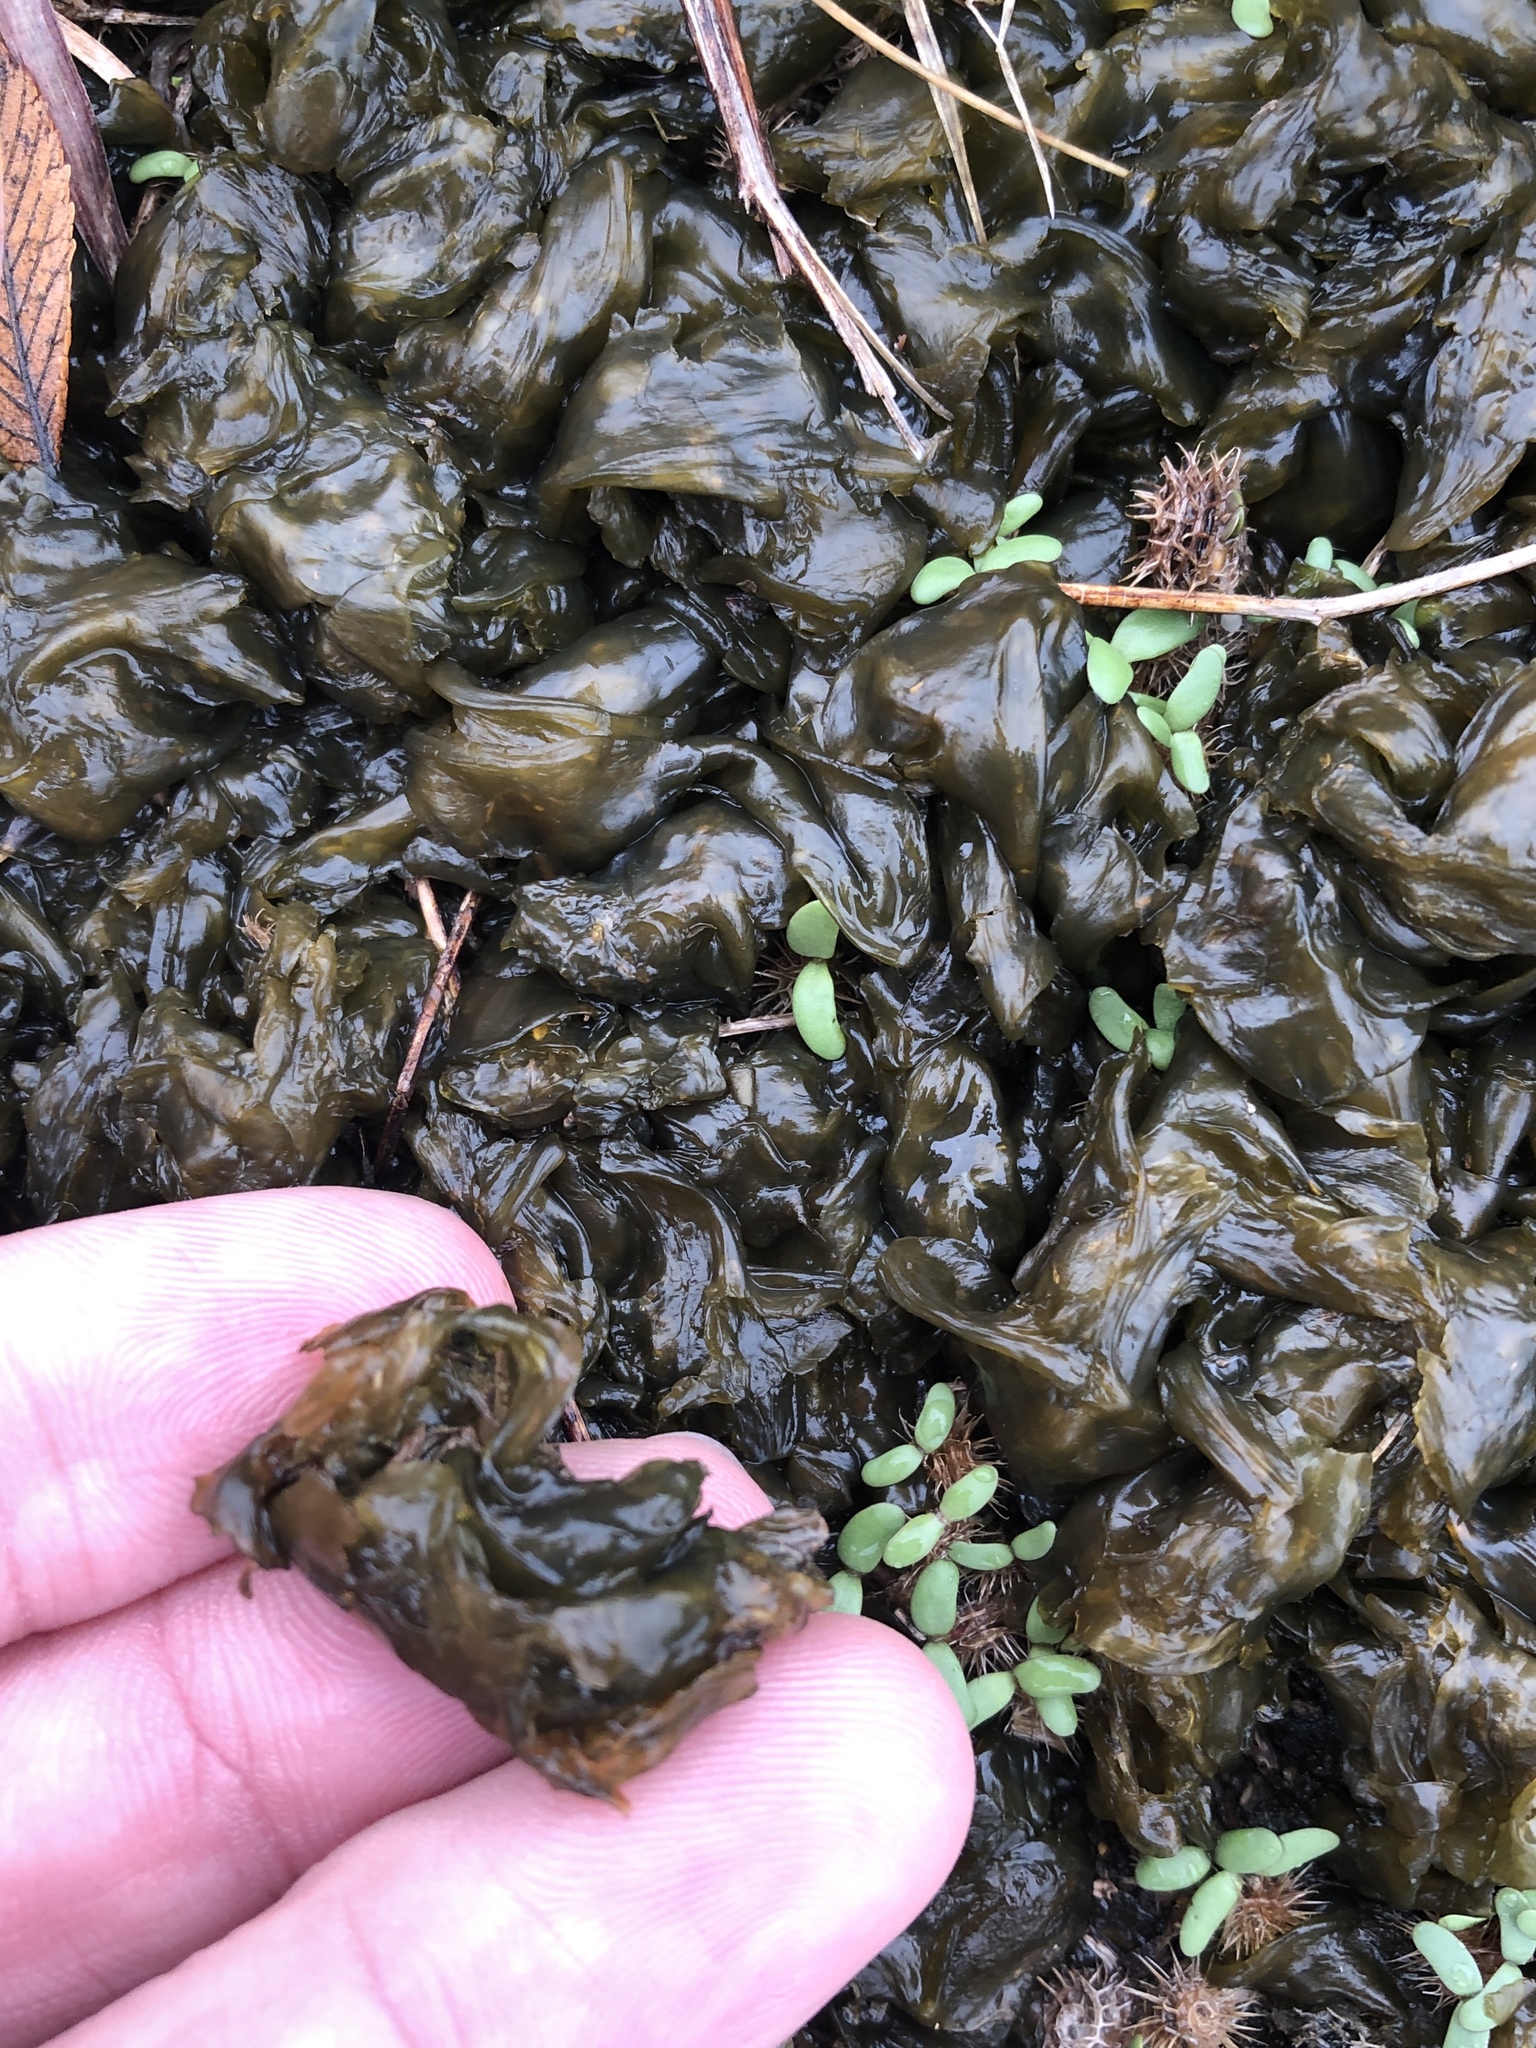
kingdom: Bacteria
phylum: Cyanobacteria
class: Cyanobacteriia
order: Cyanobacteriales
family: Nostocaceae
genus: Nostoc
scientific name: Nostoc commune
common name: Star jelly
